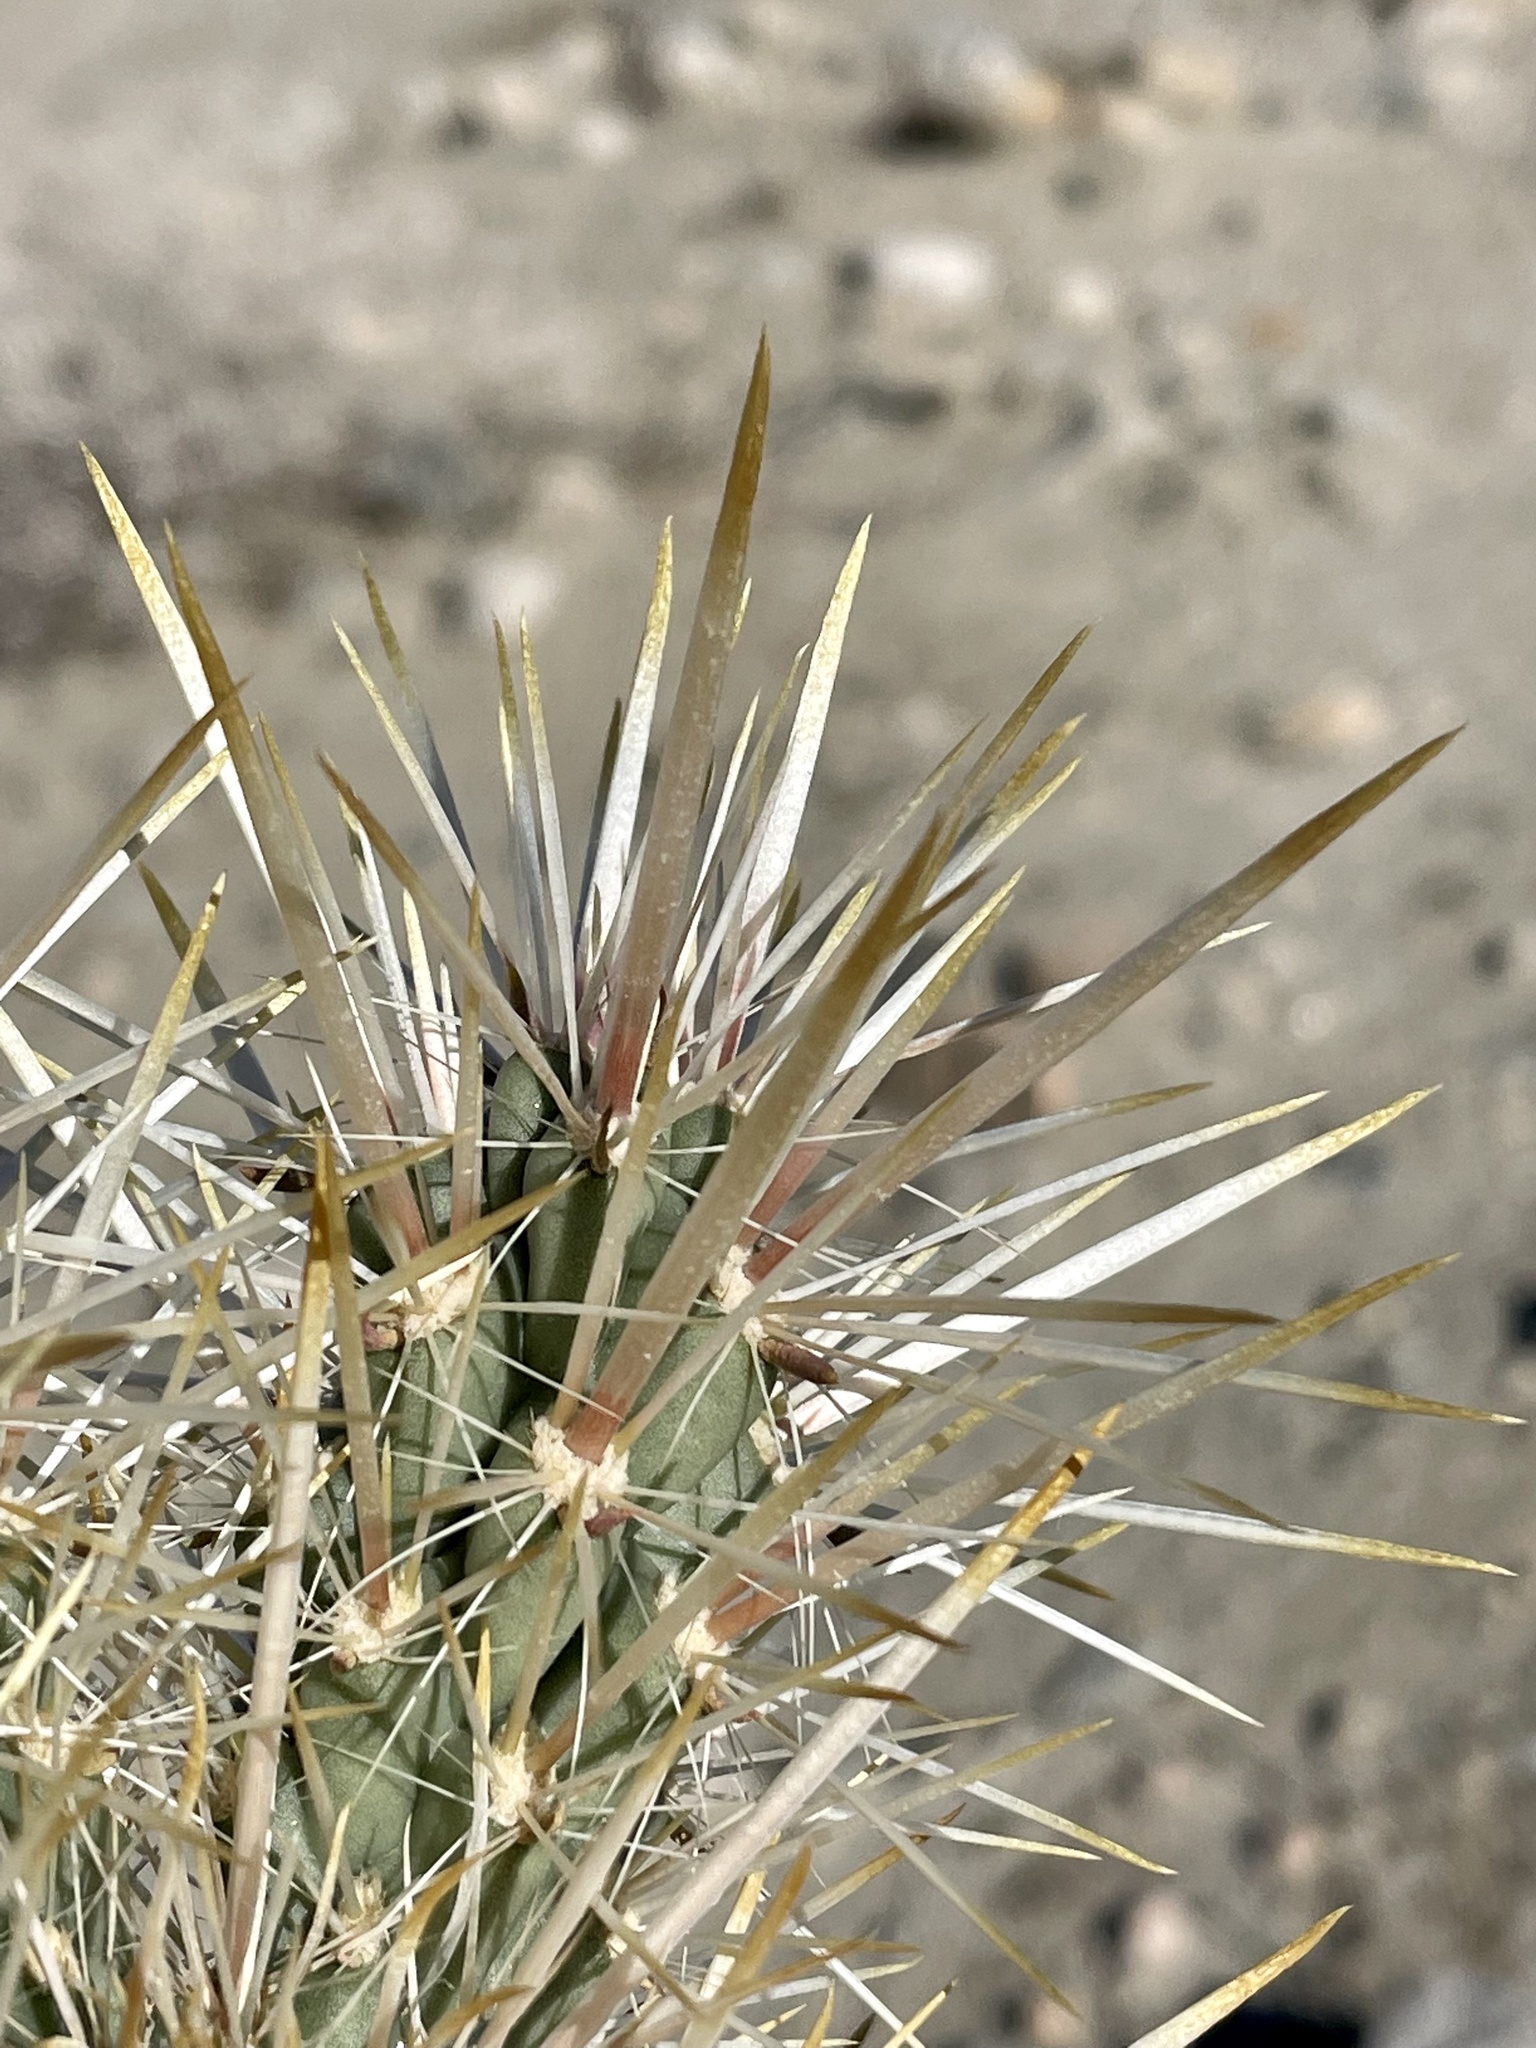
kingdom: Plantae
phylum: Tracheophyta
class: Magnoliopsida
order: Caryophyllales
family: Cactaceae
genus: Cylindropuntia
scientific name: Cylindropuntia echinocarpa
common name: Ground cholla
